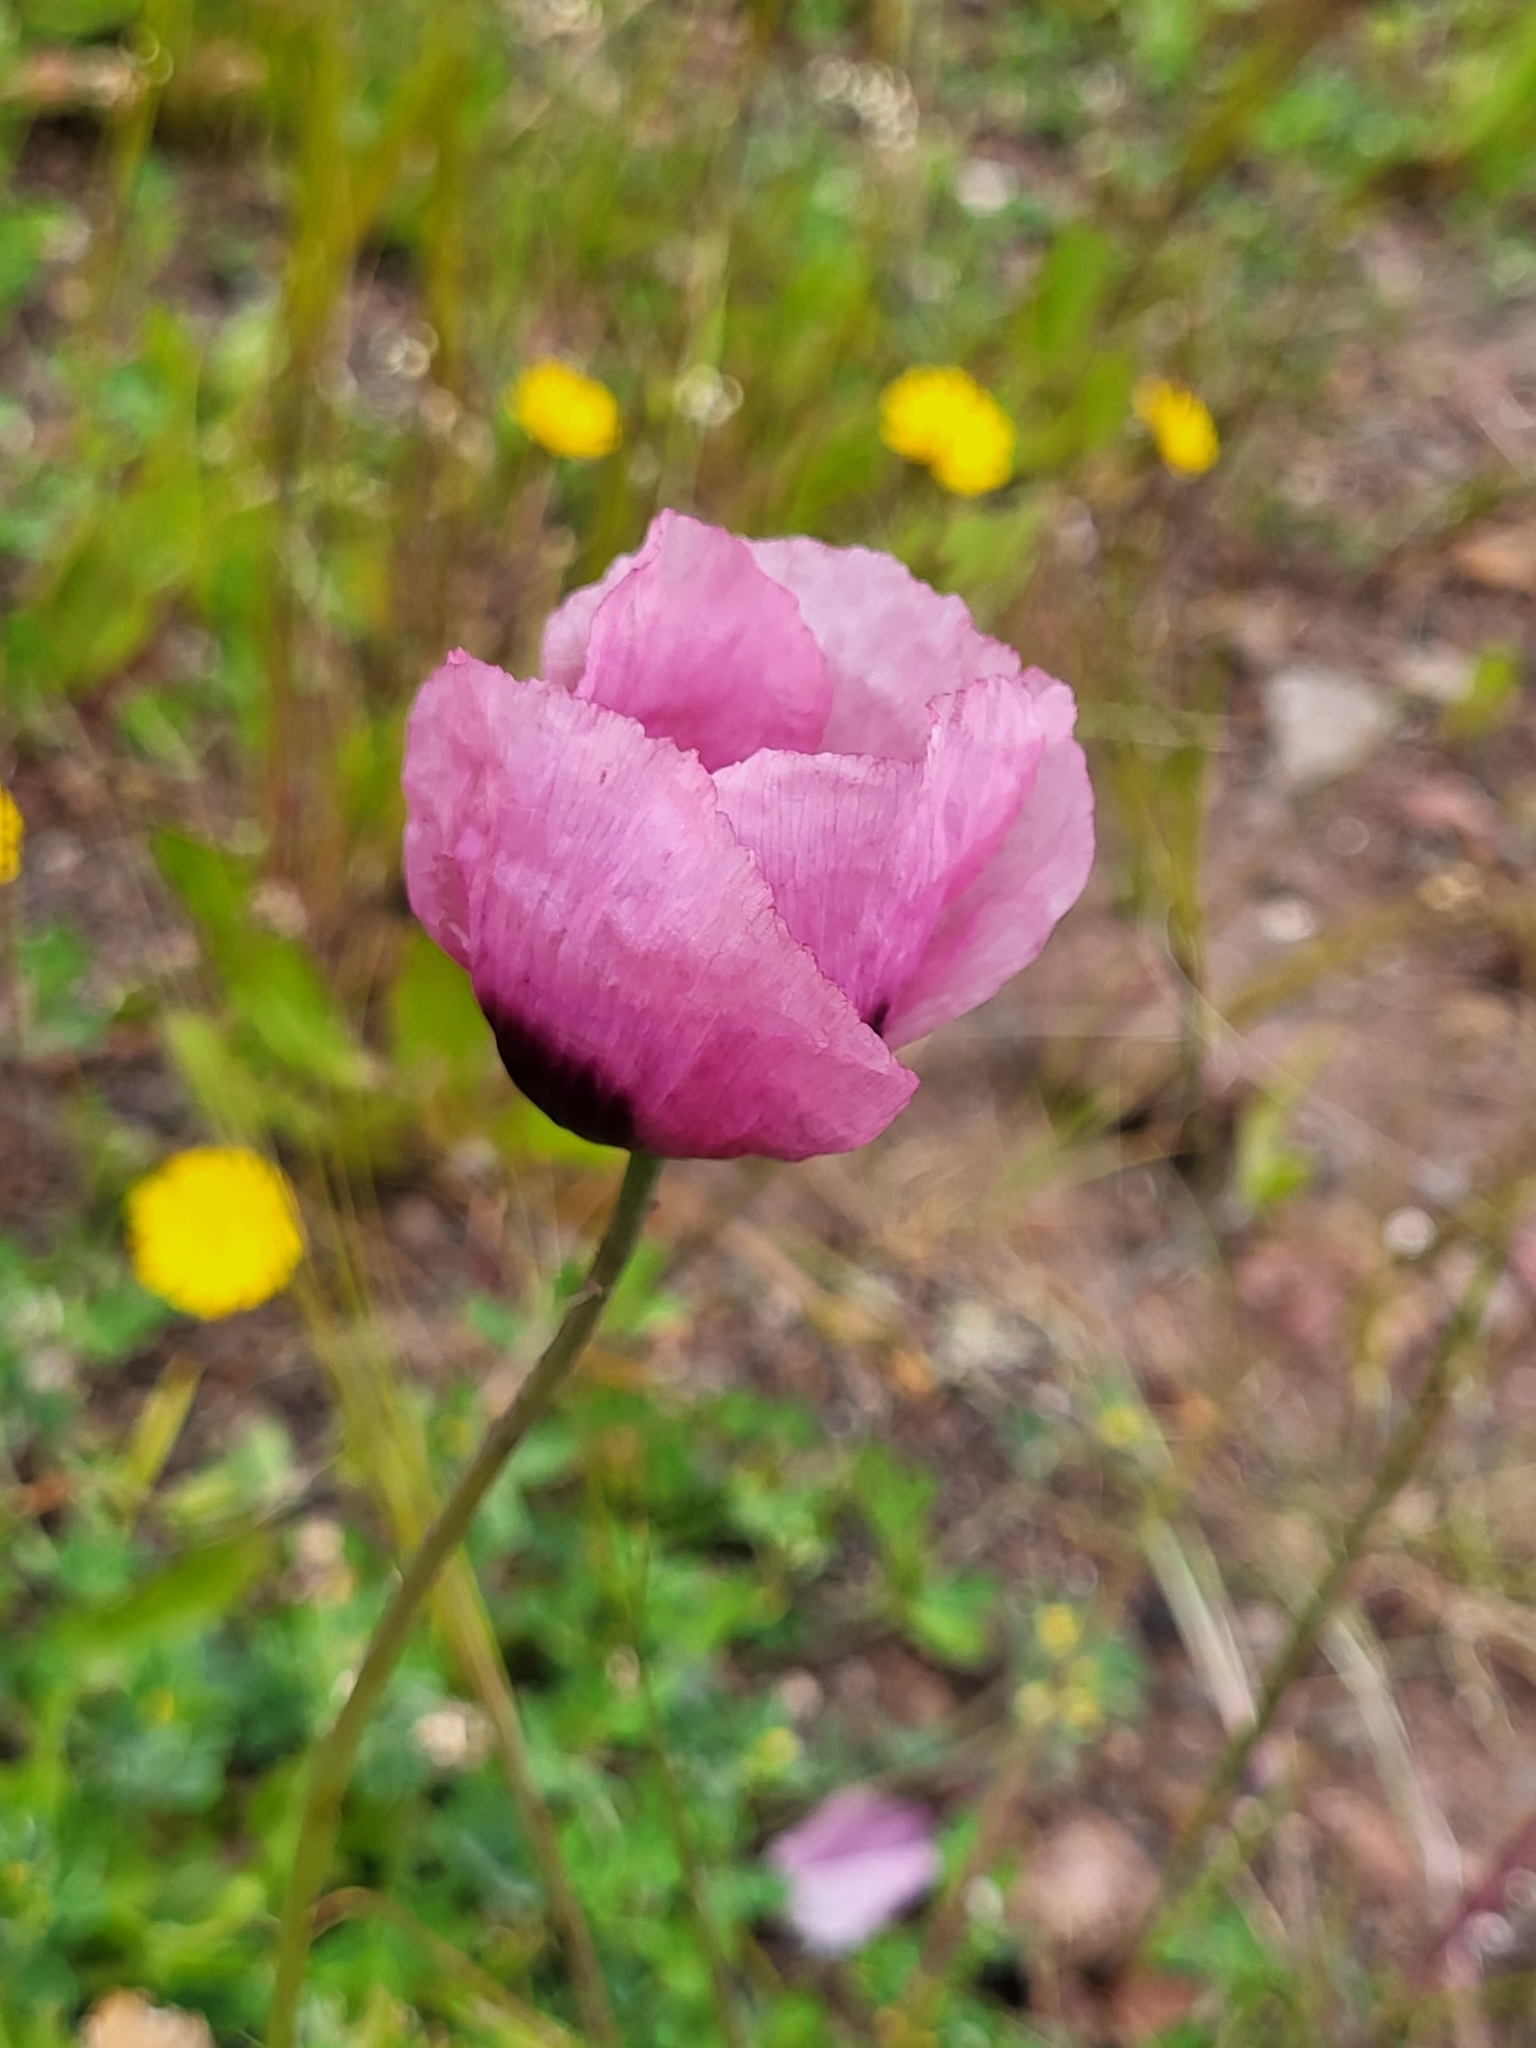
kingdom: Plantae
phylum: Tracheophyta
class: Magnoliopsida
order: Ranunculales
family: Papaveraceae
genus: Papaver
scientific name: Papaver somniferum
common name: Opium poppy
